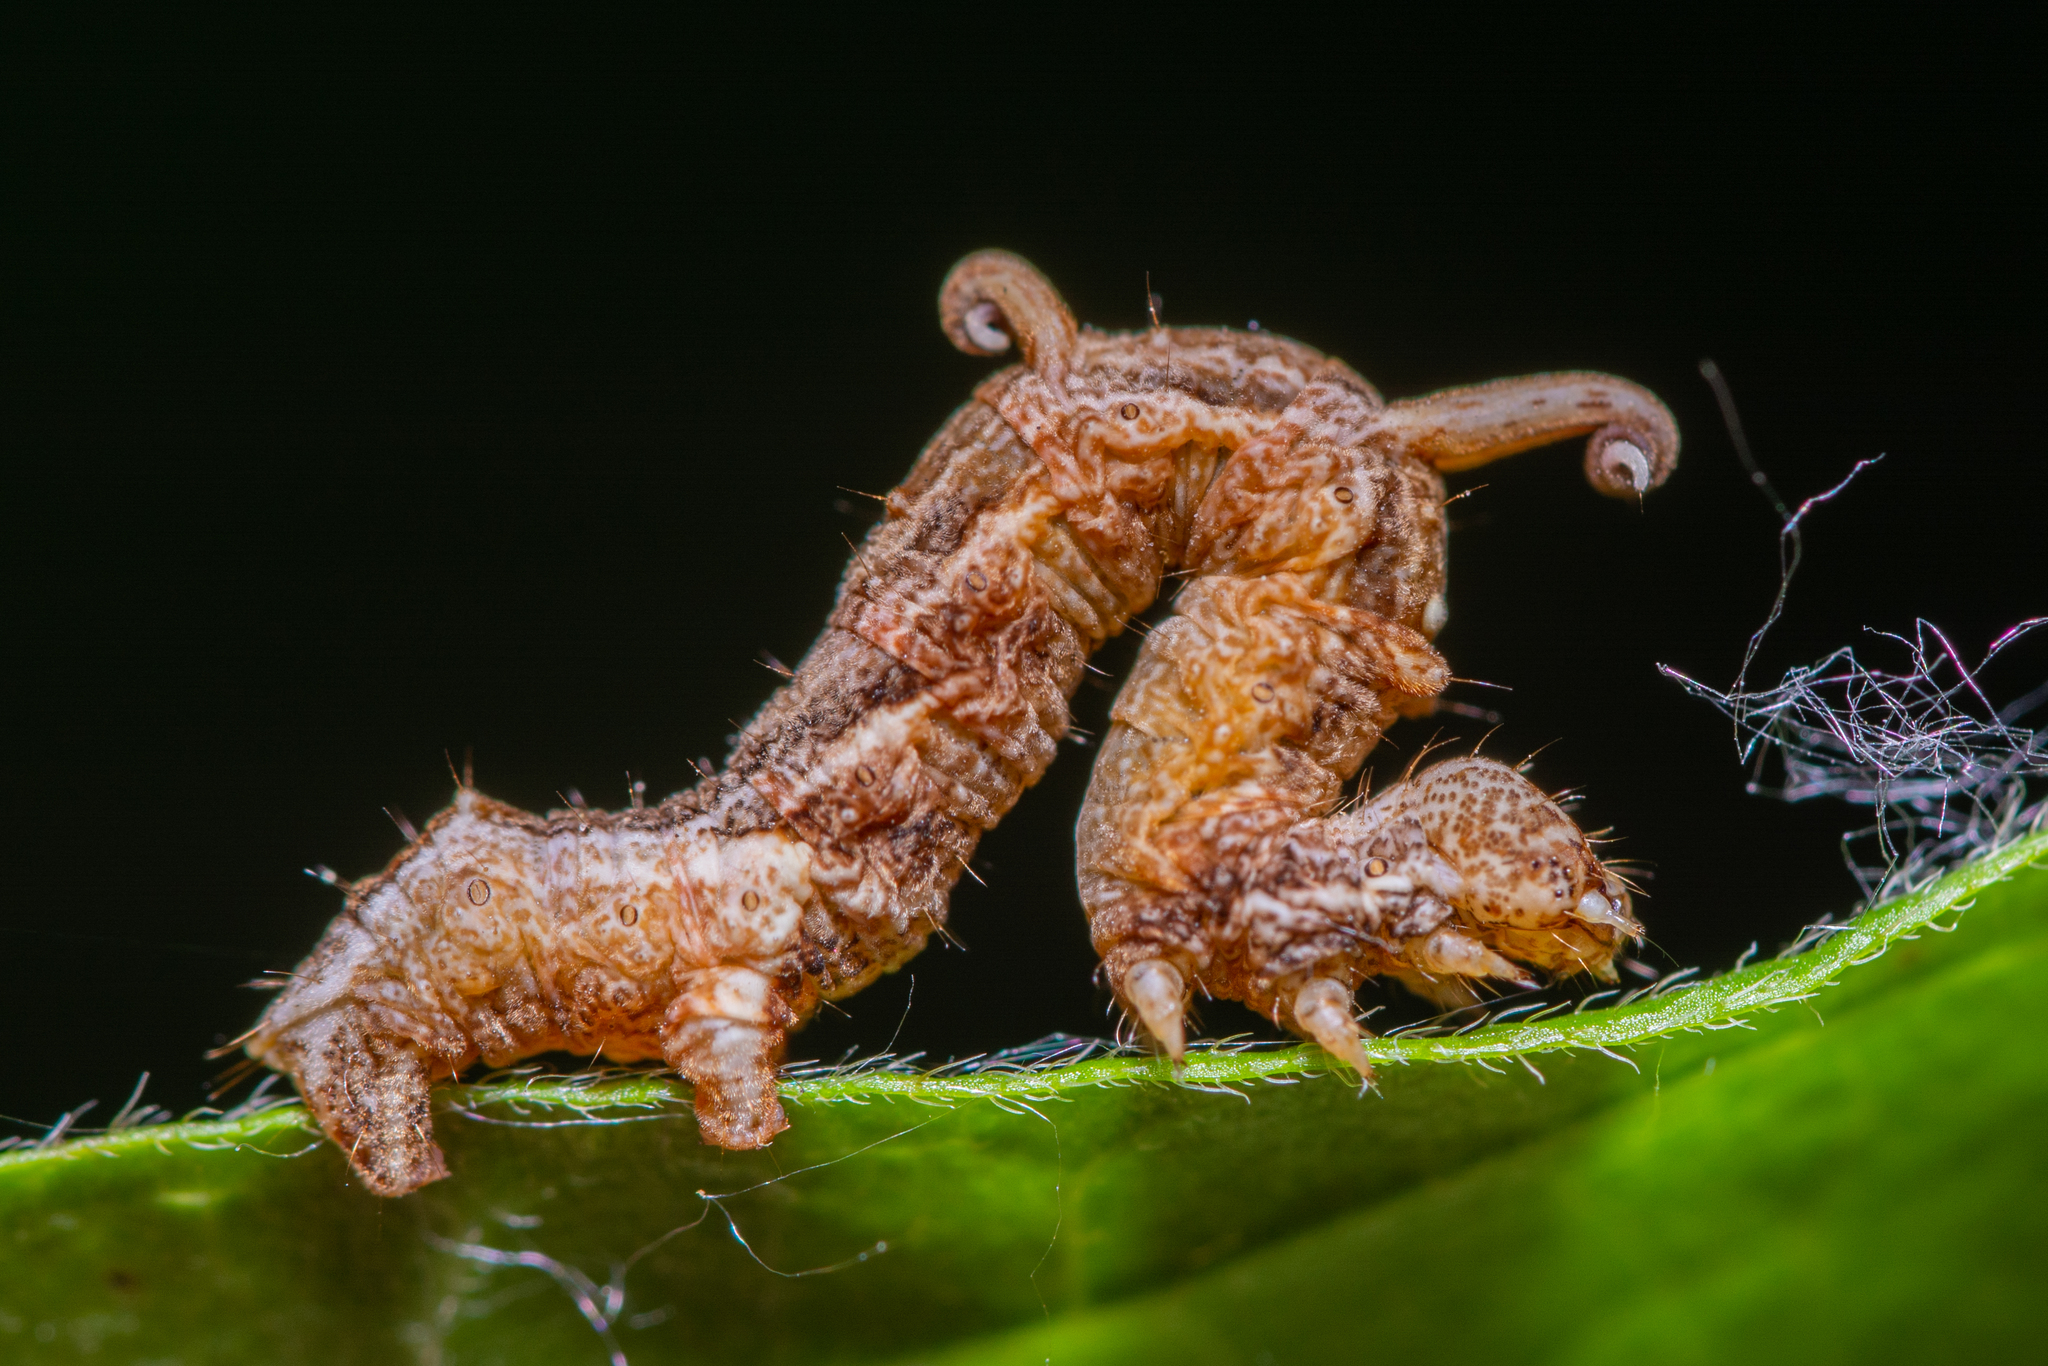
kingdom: Animalia
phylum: Arthropoda
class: Insecta
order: Lepidoptera
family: Geometridae
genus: Nematocampa
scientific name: Nematocampa resistaria
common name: Horned spanworm moth
